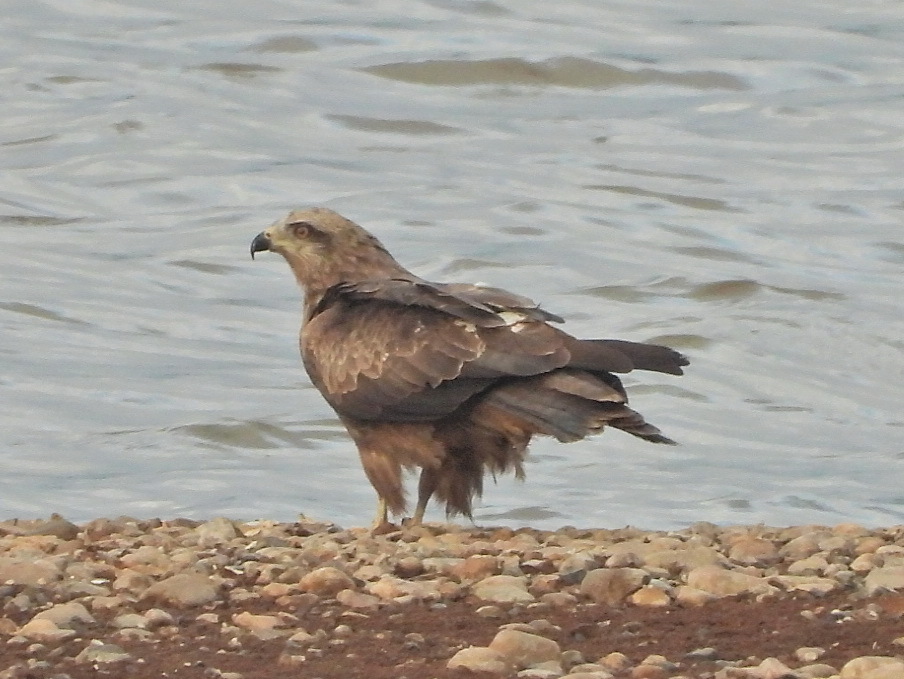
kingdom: Animalia
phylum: Chordata
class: Aves
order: Accipitriformes
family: Accipitridae
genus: Milvus
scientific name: Milvus migrans
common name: Black kite
